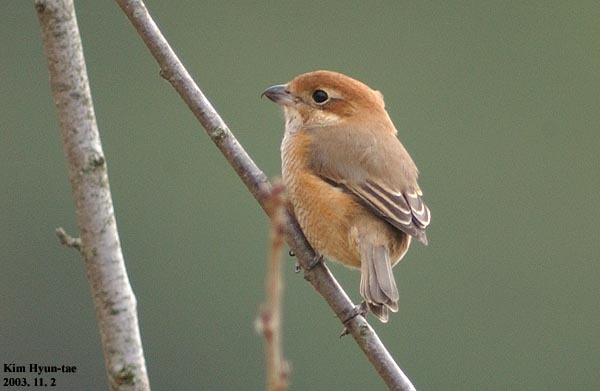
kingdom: Animalia
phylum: Chordata
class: Aves
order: Passeriformes
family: Laniidae
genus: Lanius
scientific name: Lanius bucephalus
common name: Bull-headed shrike
